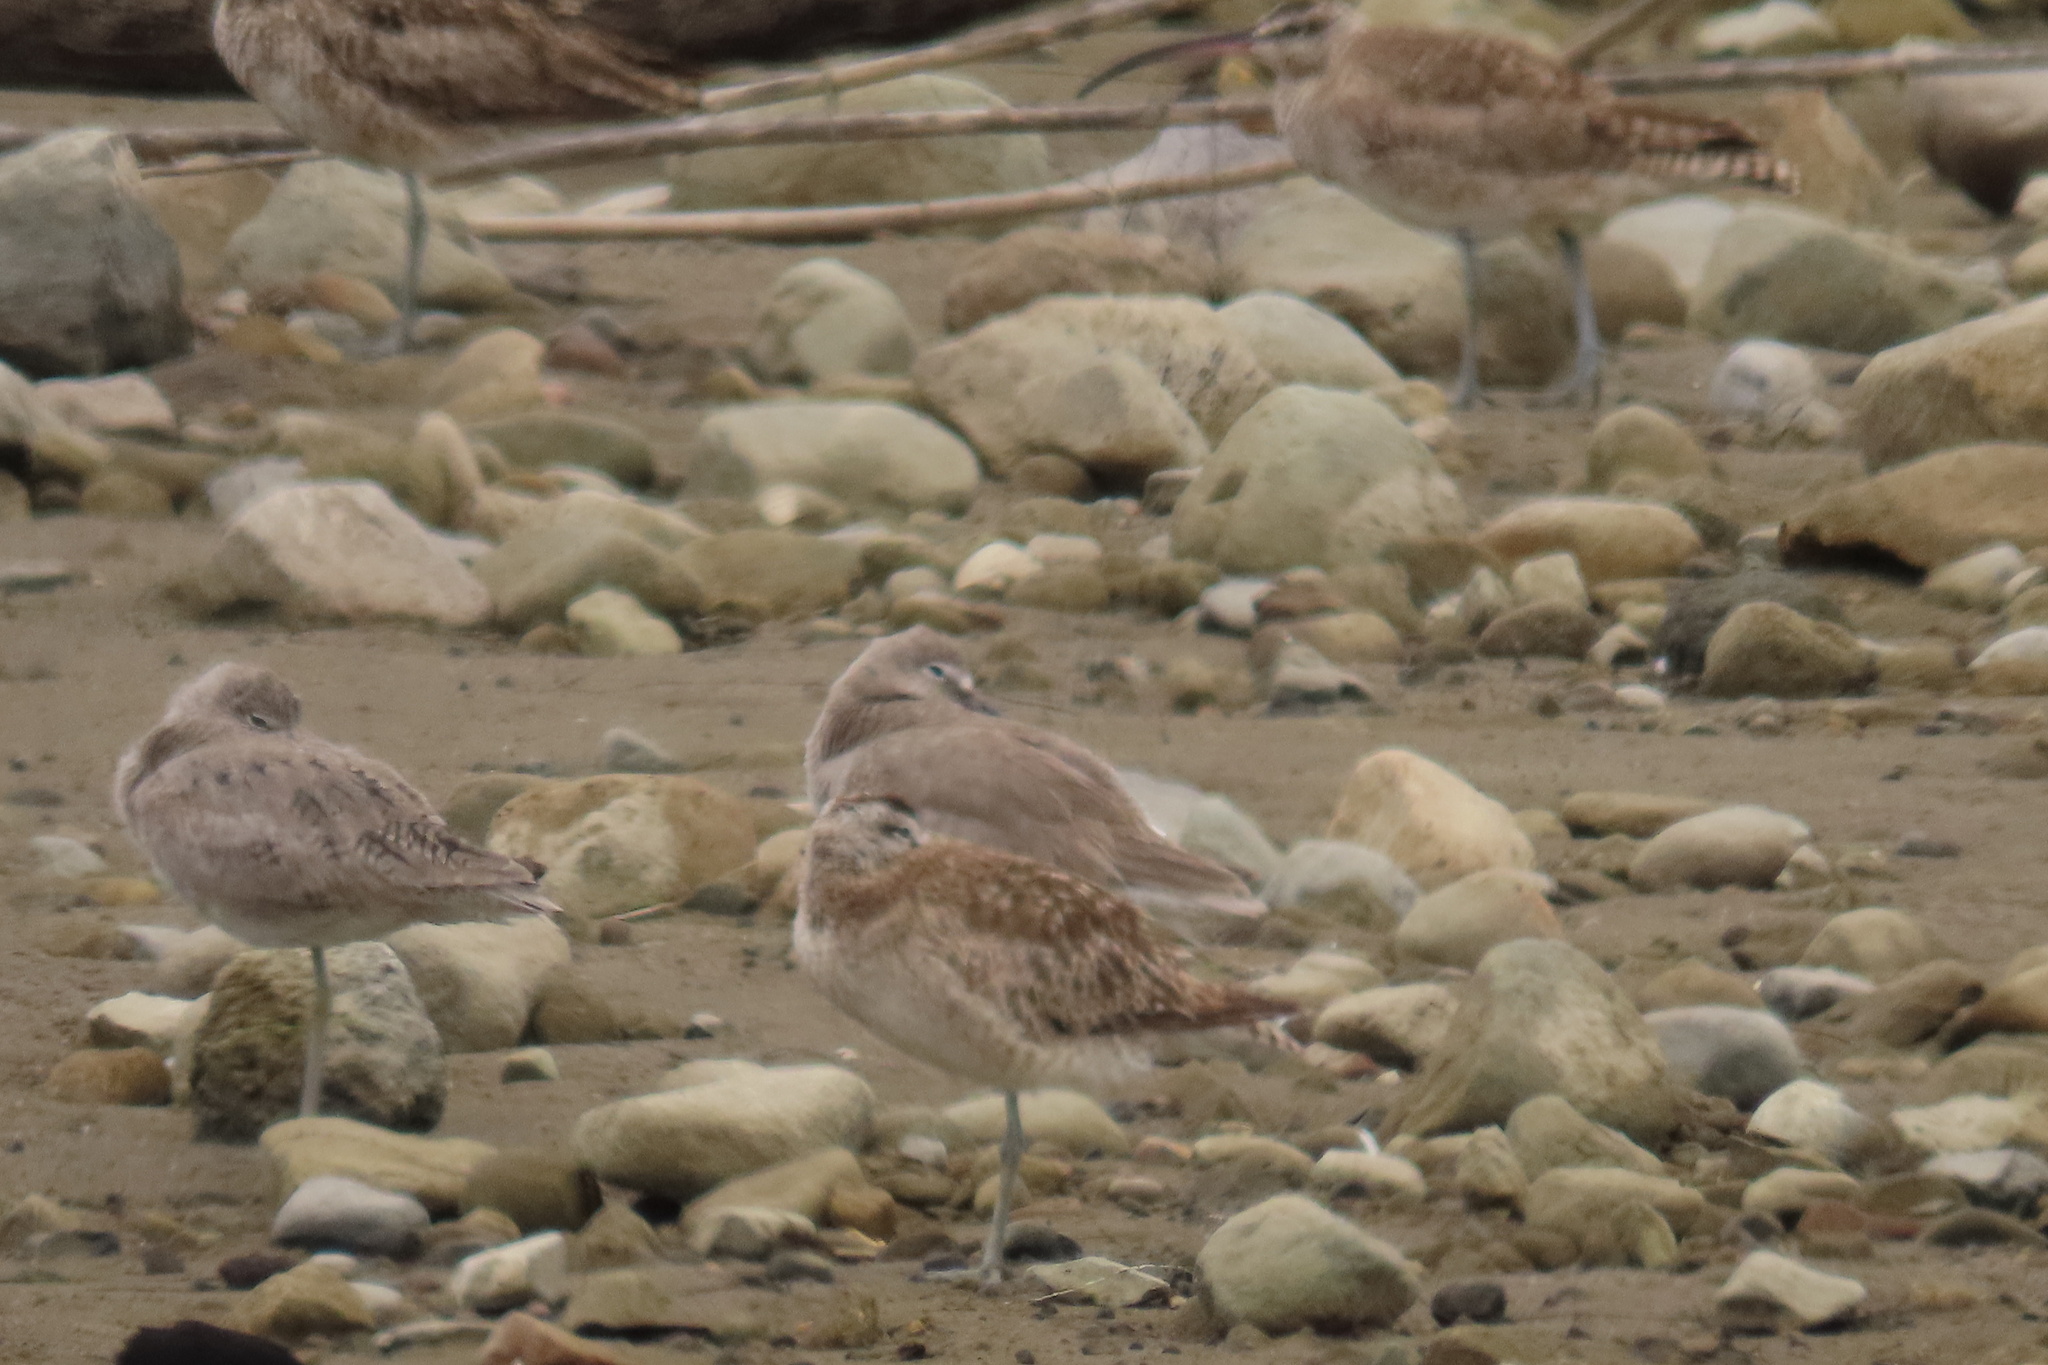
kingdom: Animalia
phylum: Chordata
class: Aves
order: Charadriiformes
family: Scolopacidae
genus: Tringa
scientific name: Tringa semipalmata
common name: Willet
